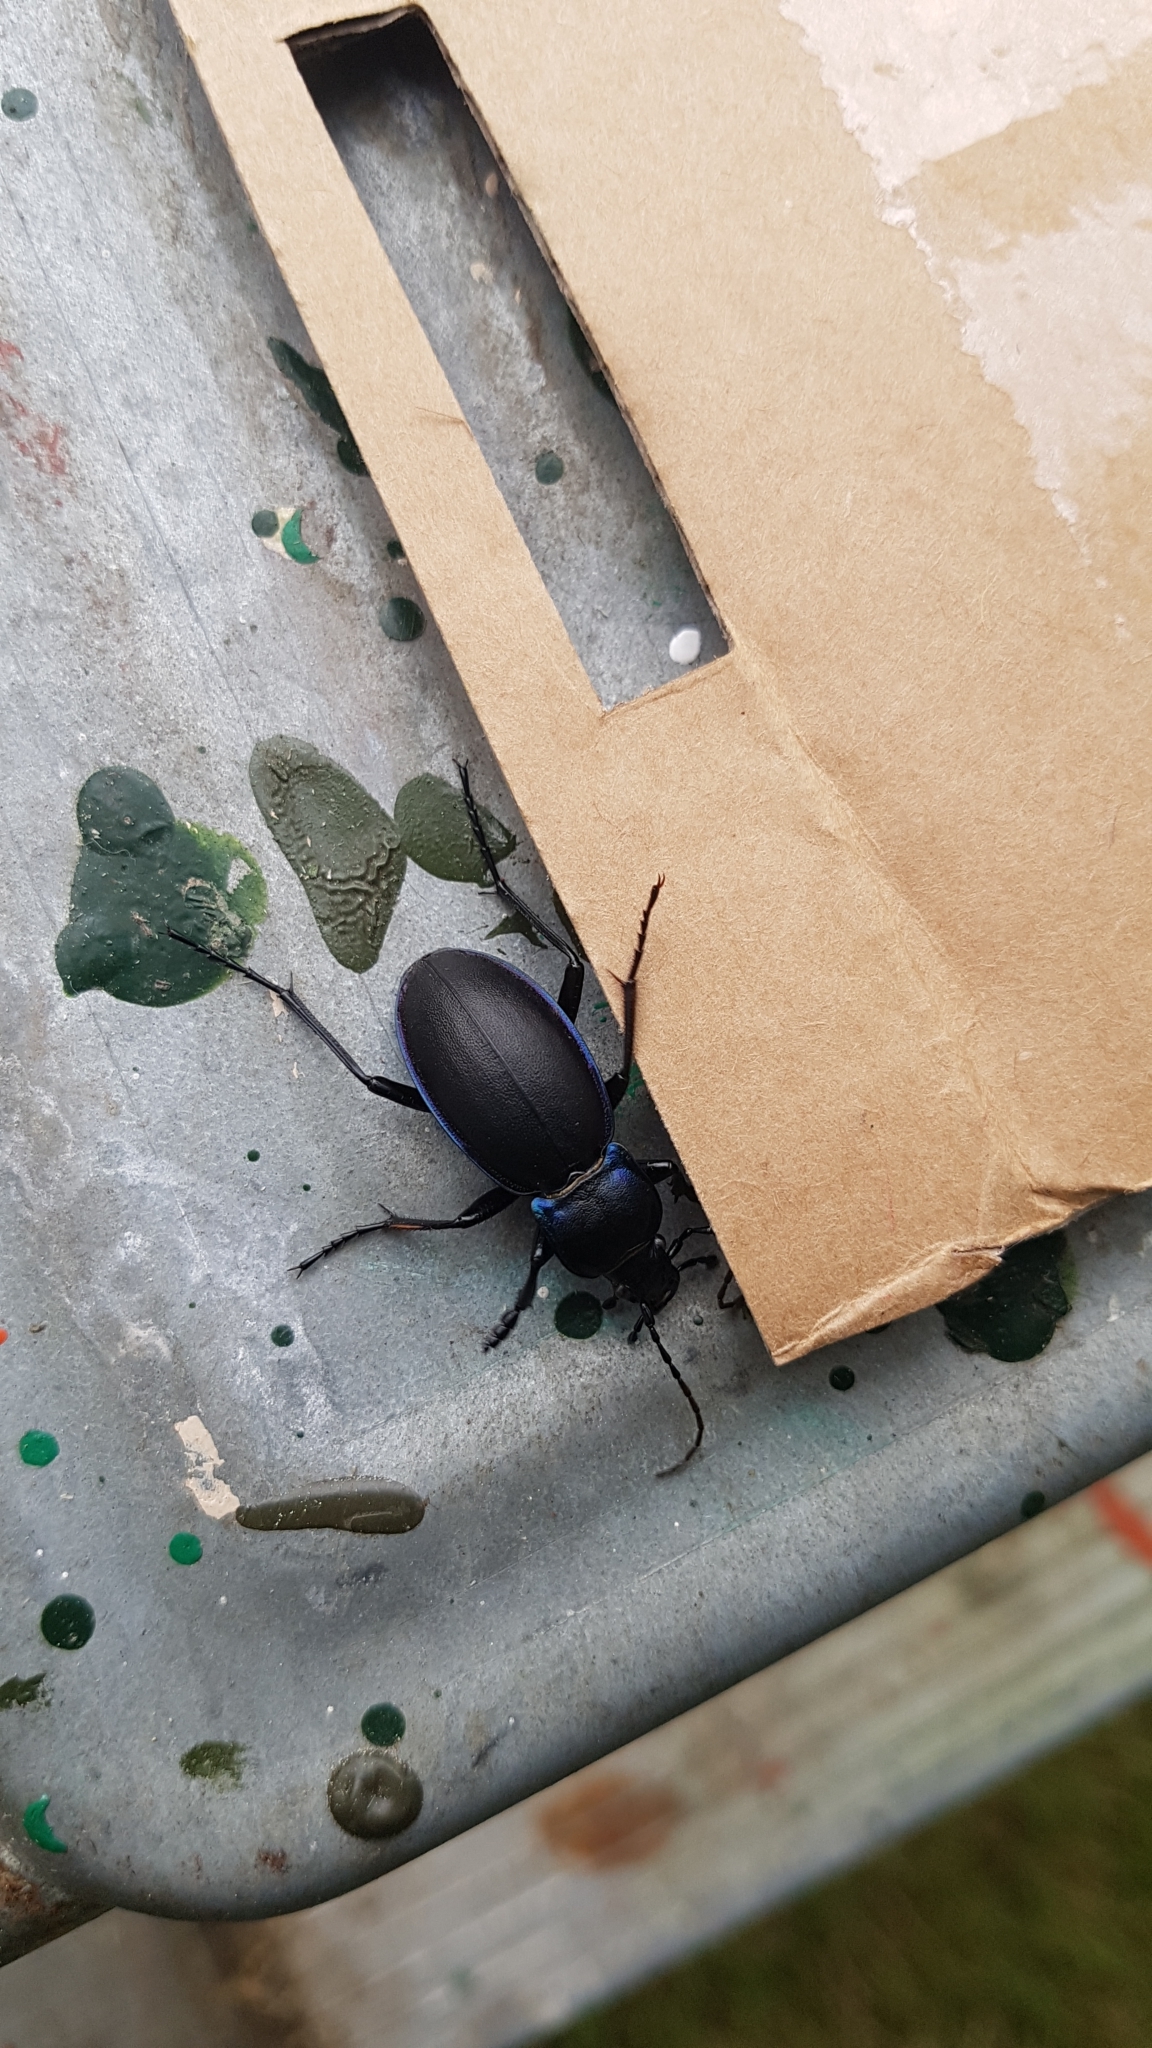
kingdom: Animalia
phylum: Arthropoda
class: Insecta
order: Coleoptera
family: Carabidae
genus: Carabus
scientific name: Carabus violaceus
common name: Violet ground beetle
